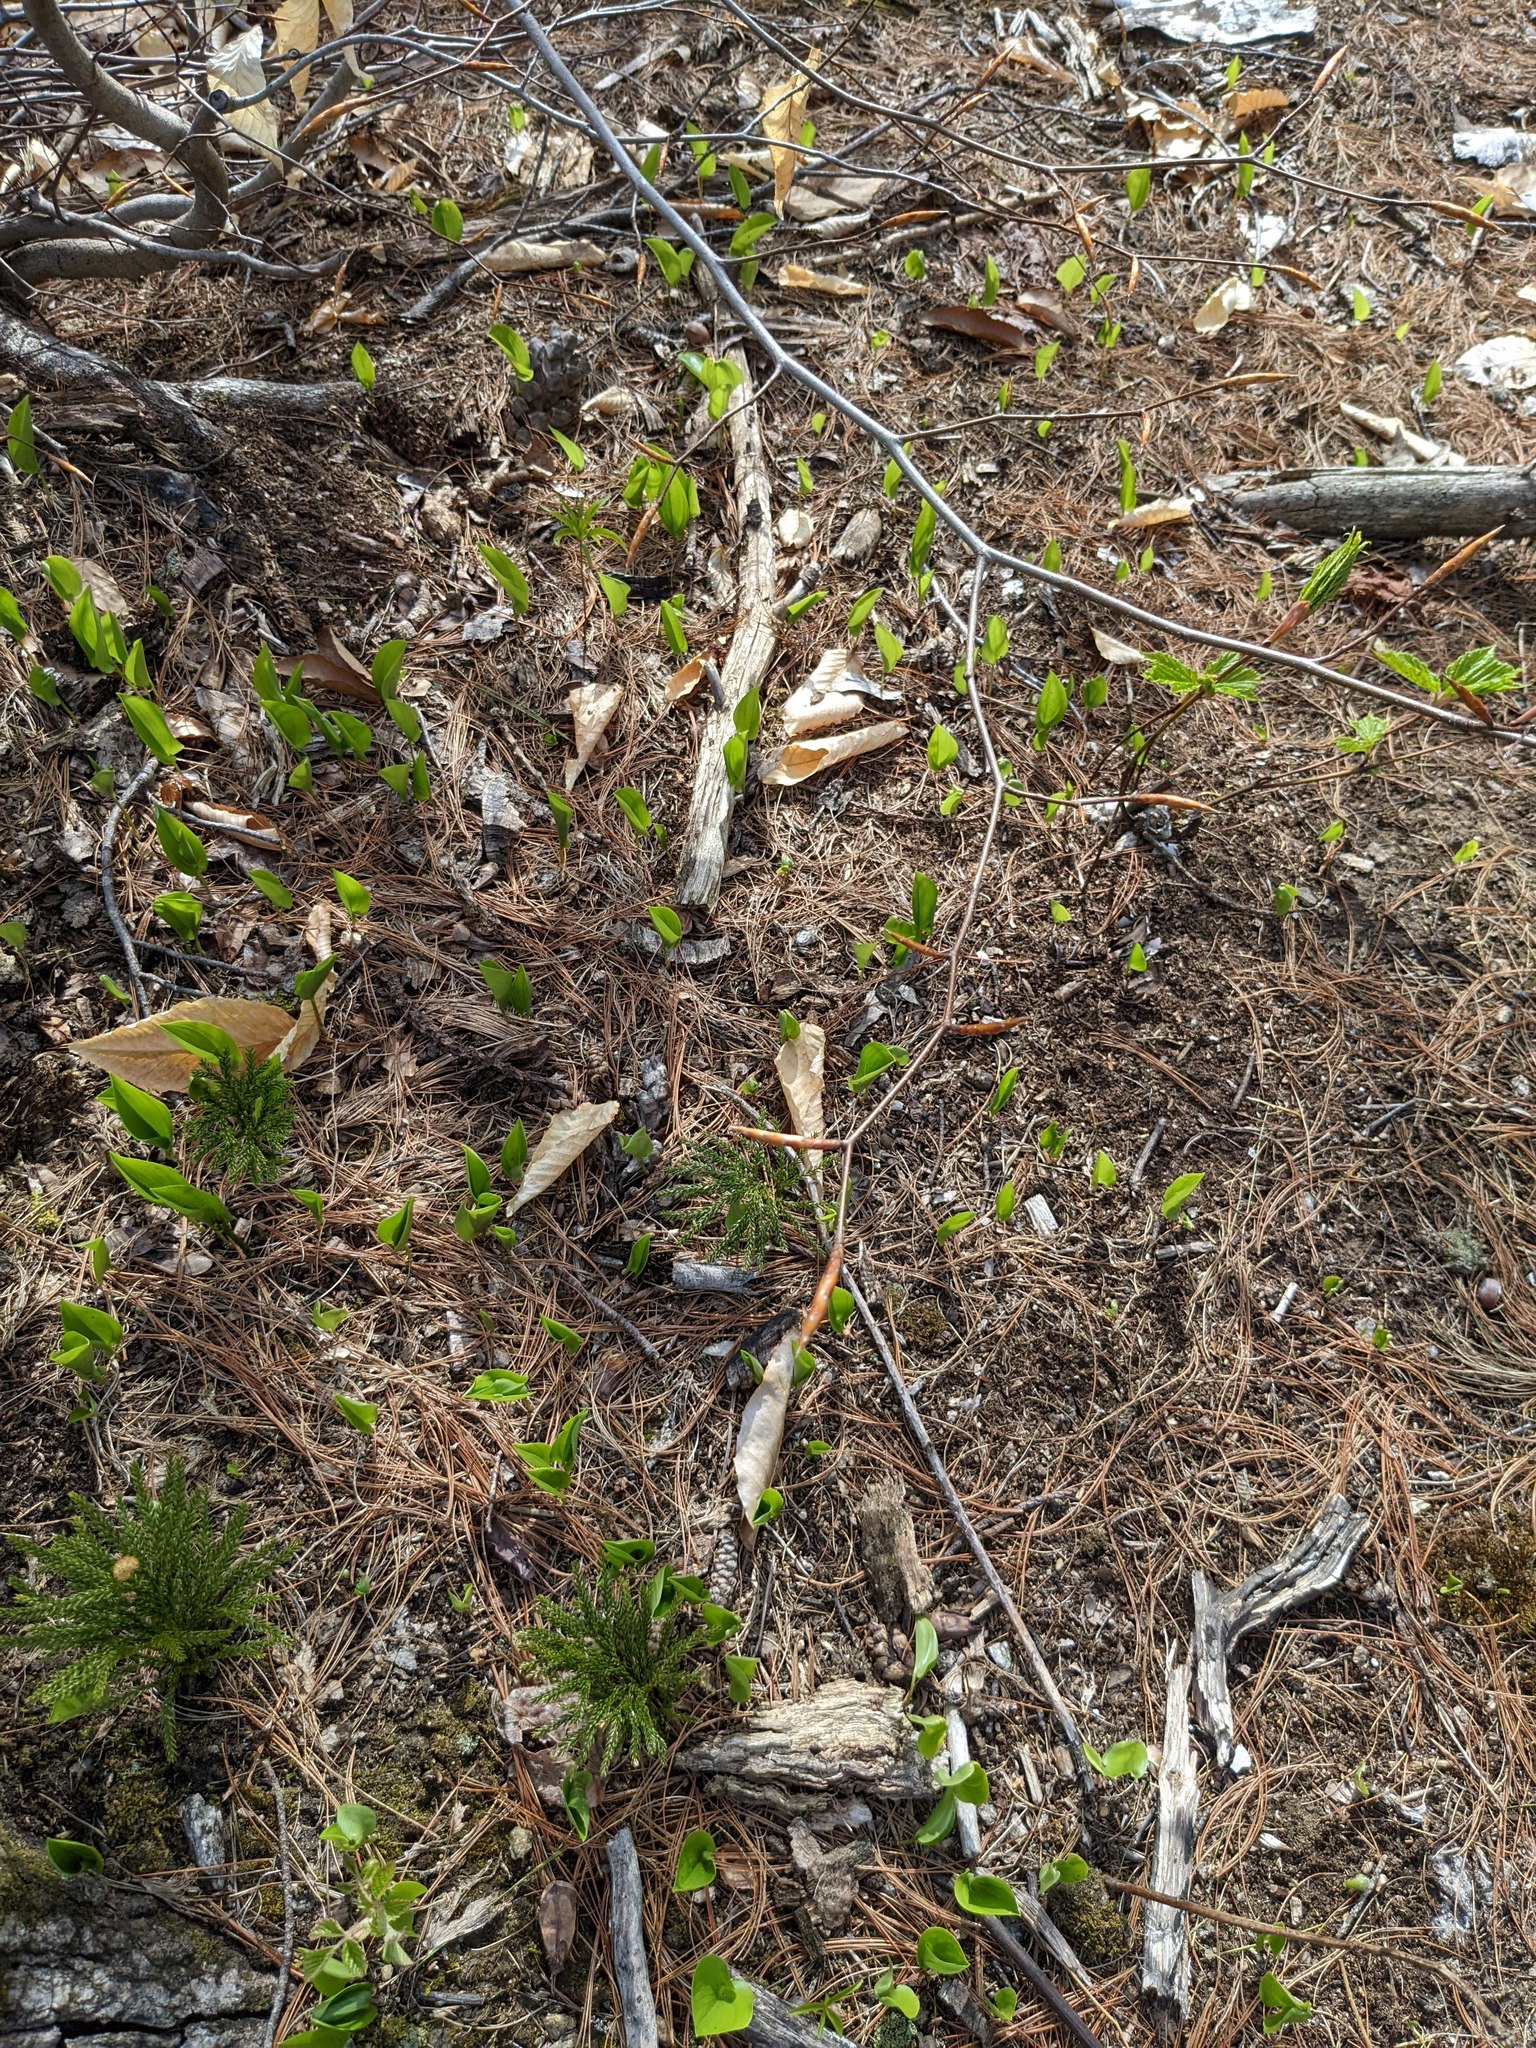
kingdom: Plantae
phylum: Tracheophyta
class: Liliopsida
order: Asparagales
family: Asparagaceae
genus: Maianthemum
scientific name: Maianthemum canadense
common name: False lily-of-the-valley
